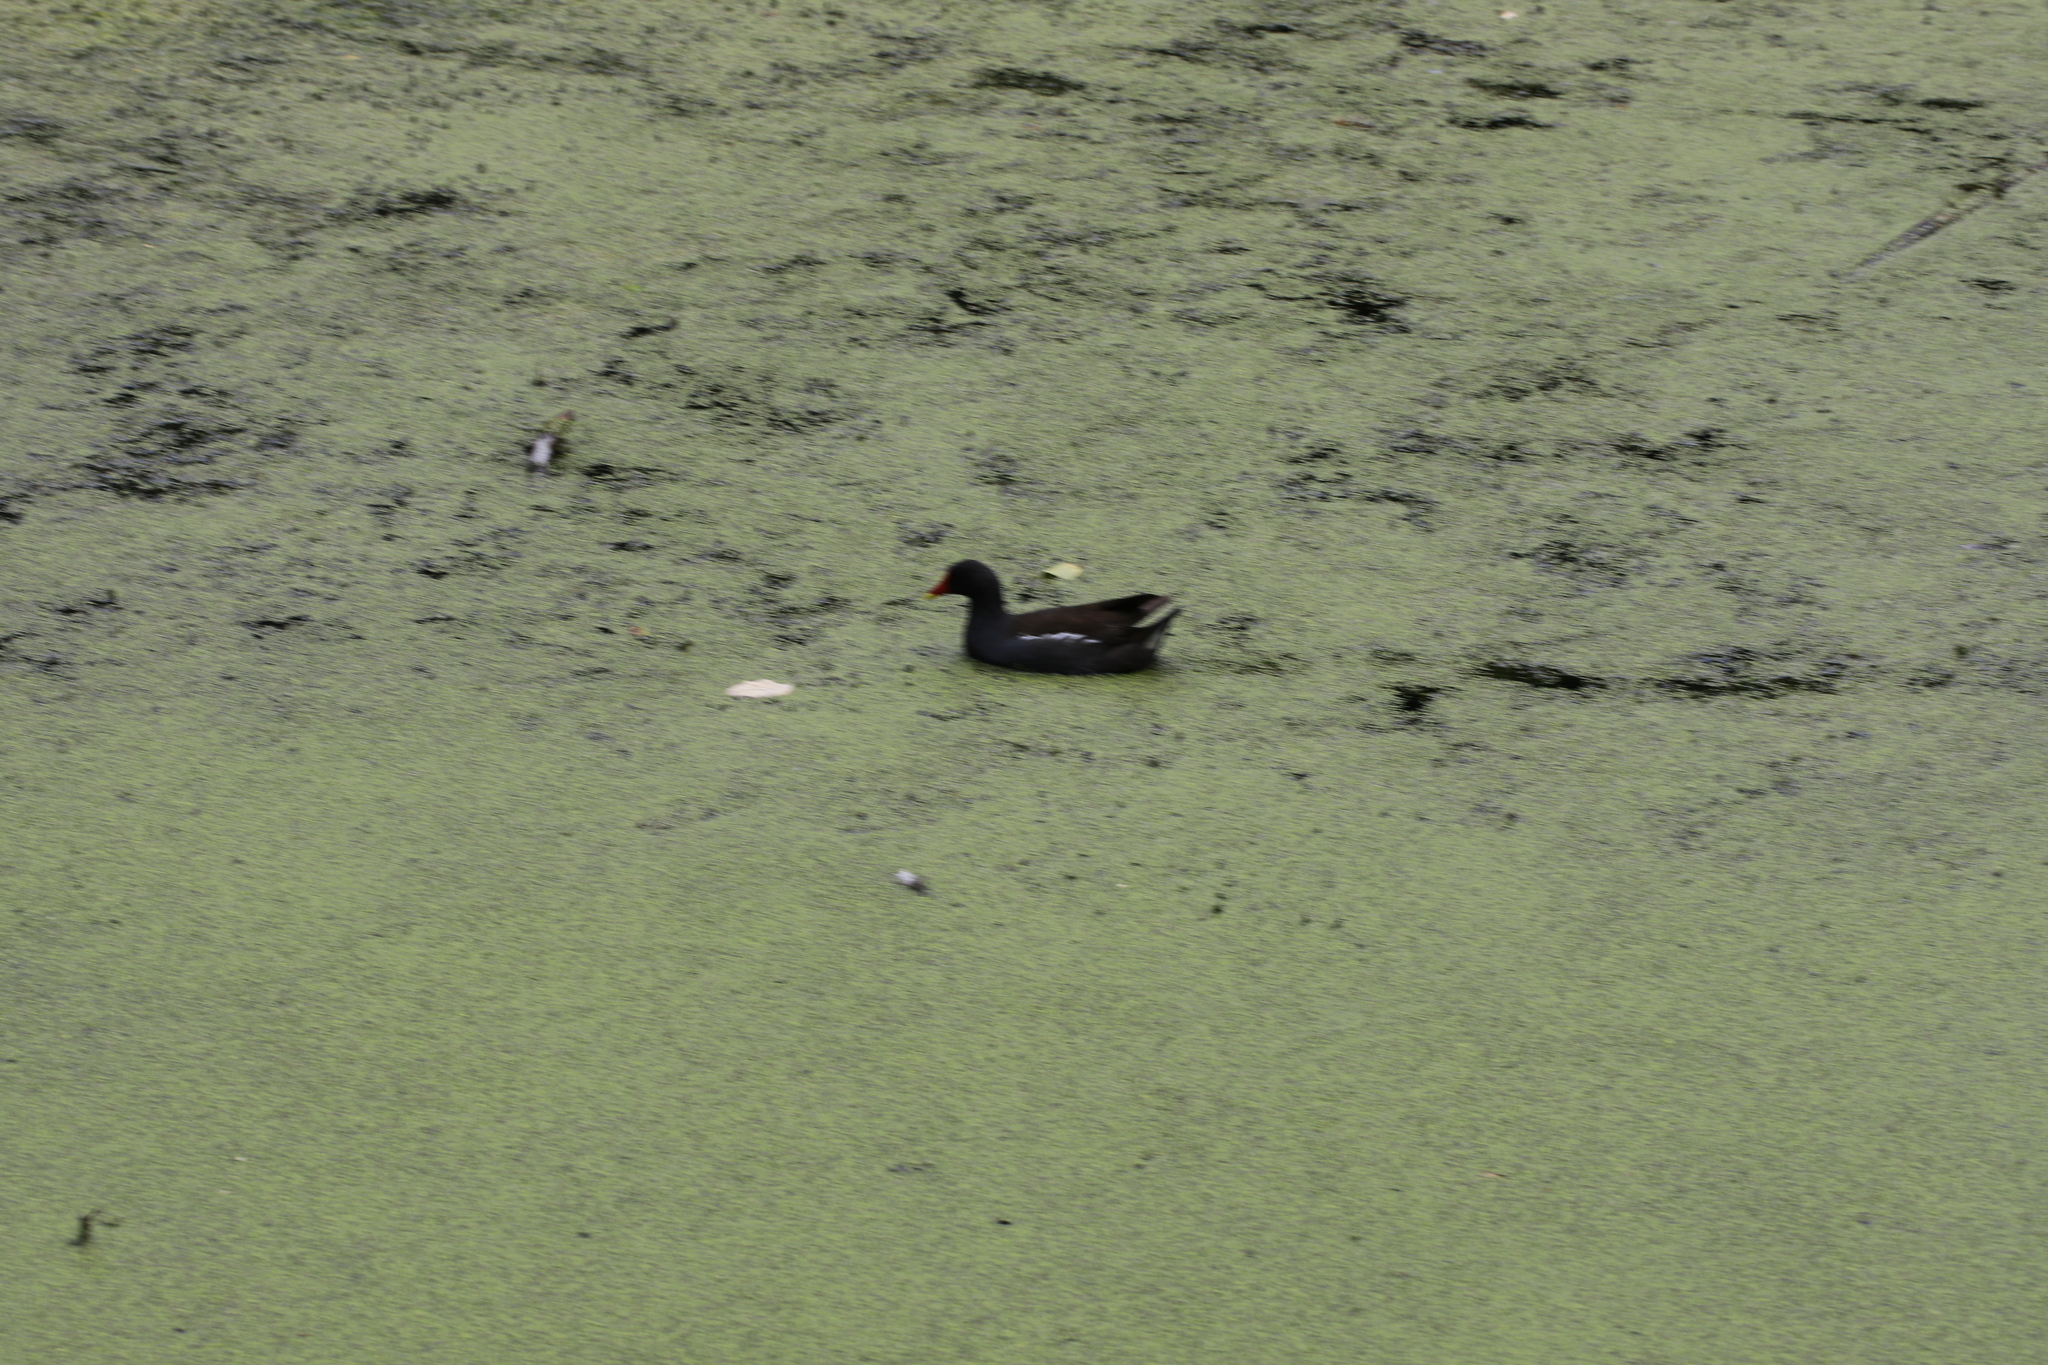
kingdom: Animalia
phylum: Chordata
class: Aves
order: Gruiformes
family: Rallidae
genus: Gallinula
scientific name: Gallinula chloropus
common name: Common moorhen
